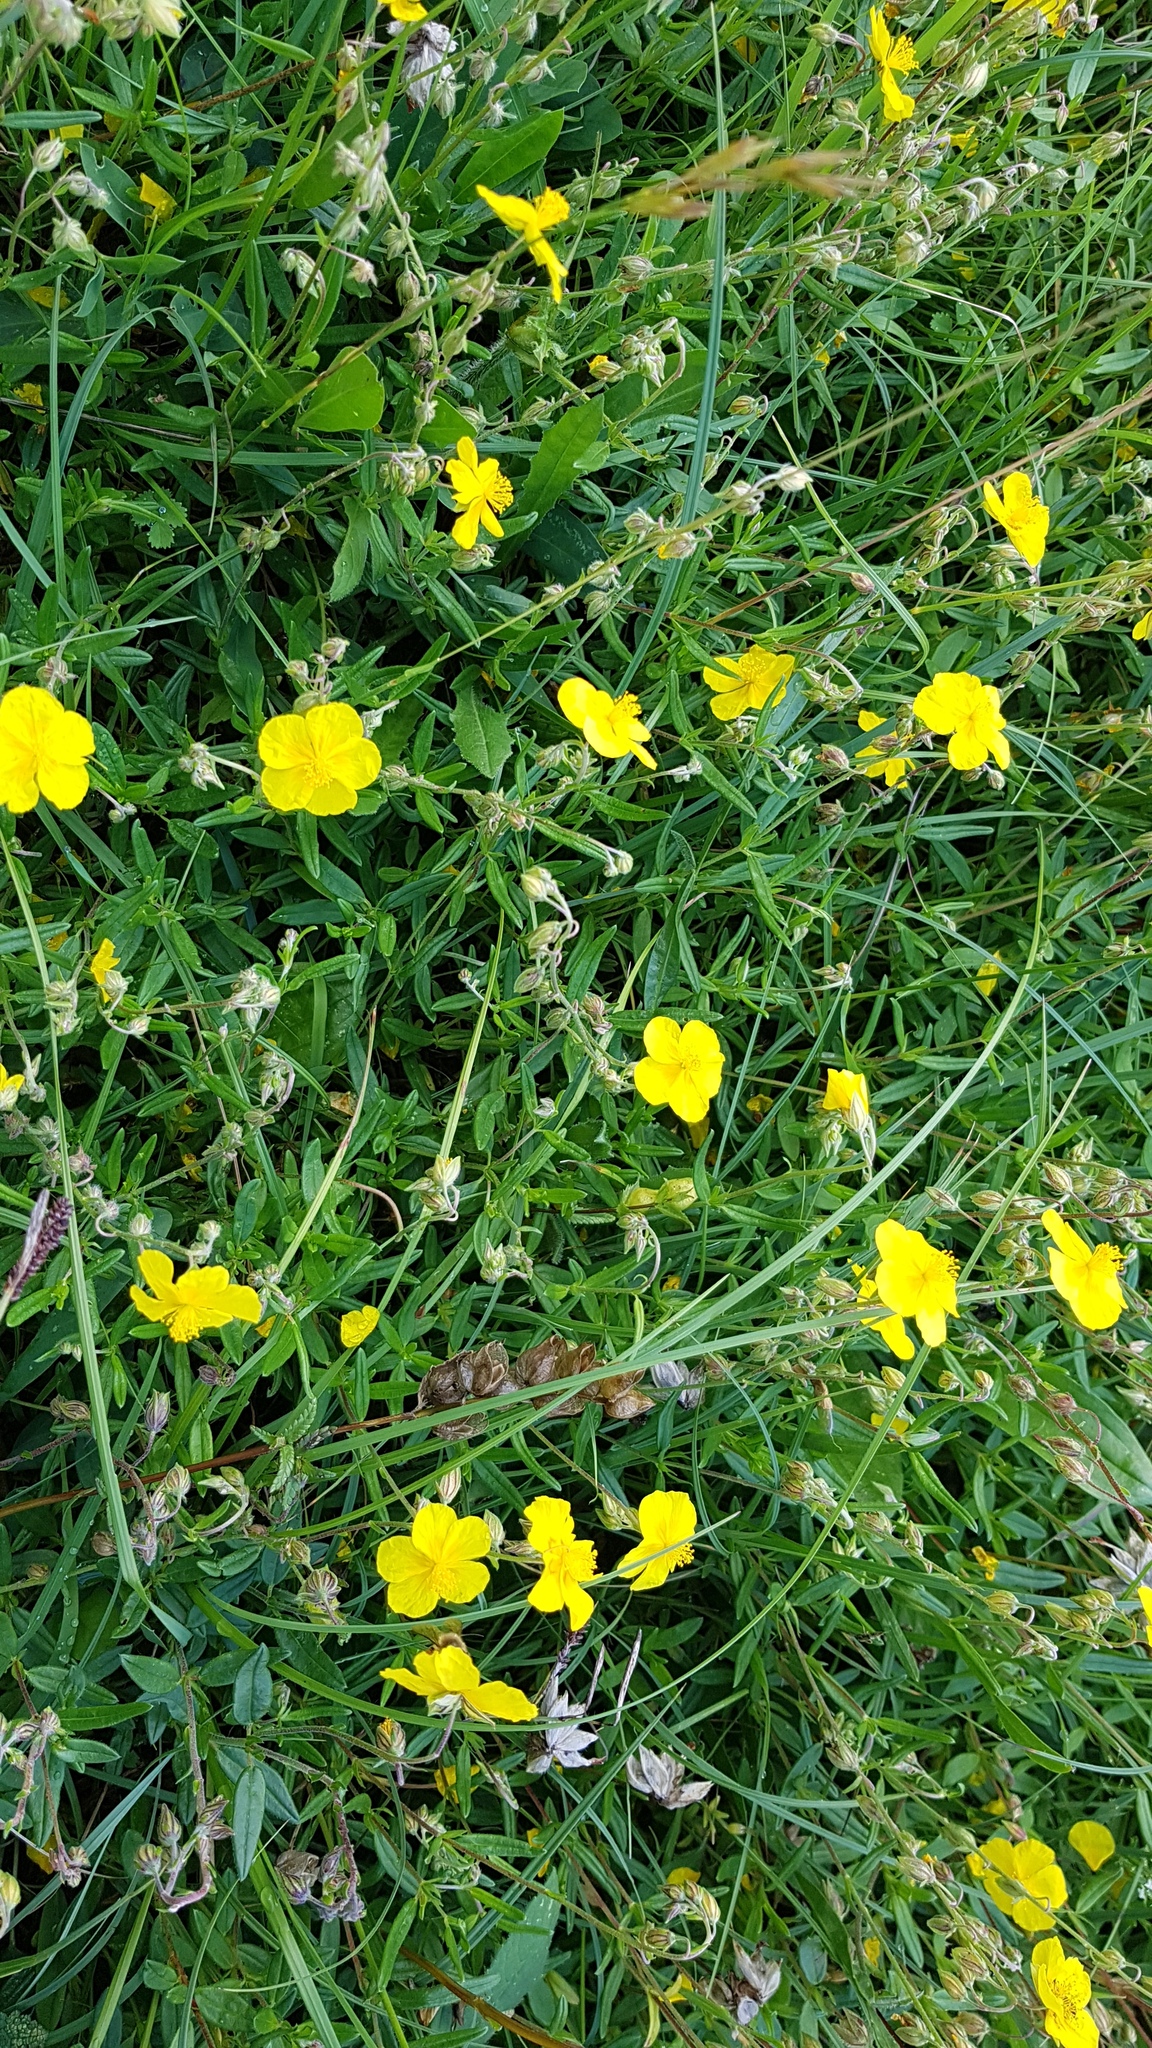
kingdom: Plantae
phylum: Tracheophyta
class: Magnoliopsida
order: Malvales
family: Cistaceae
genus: Helianthemum
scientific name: Helianthemum nummularium
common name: Common rock-rose
